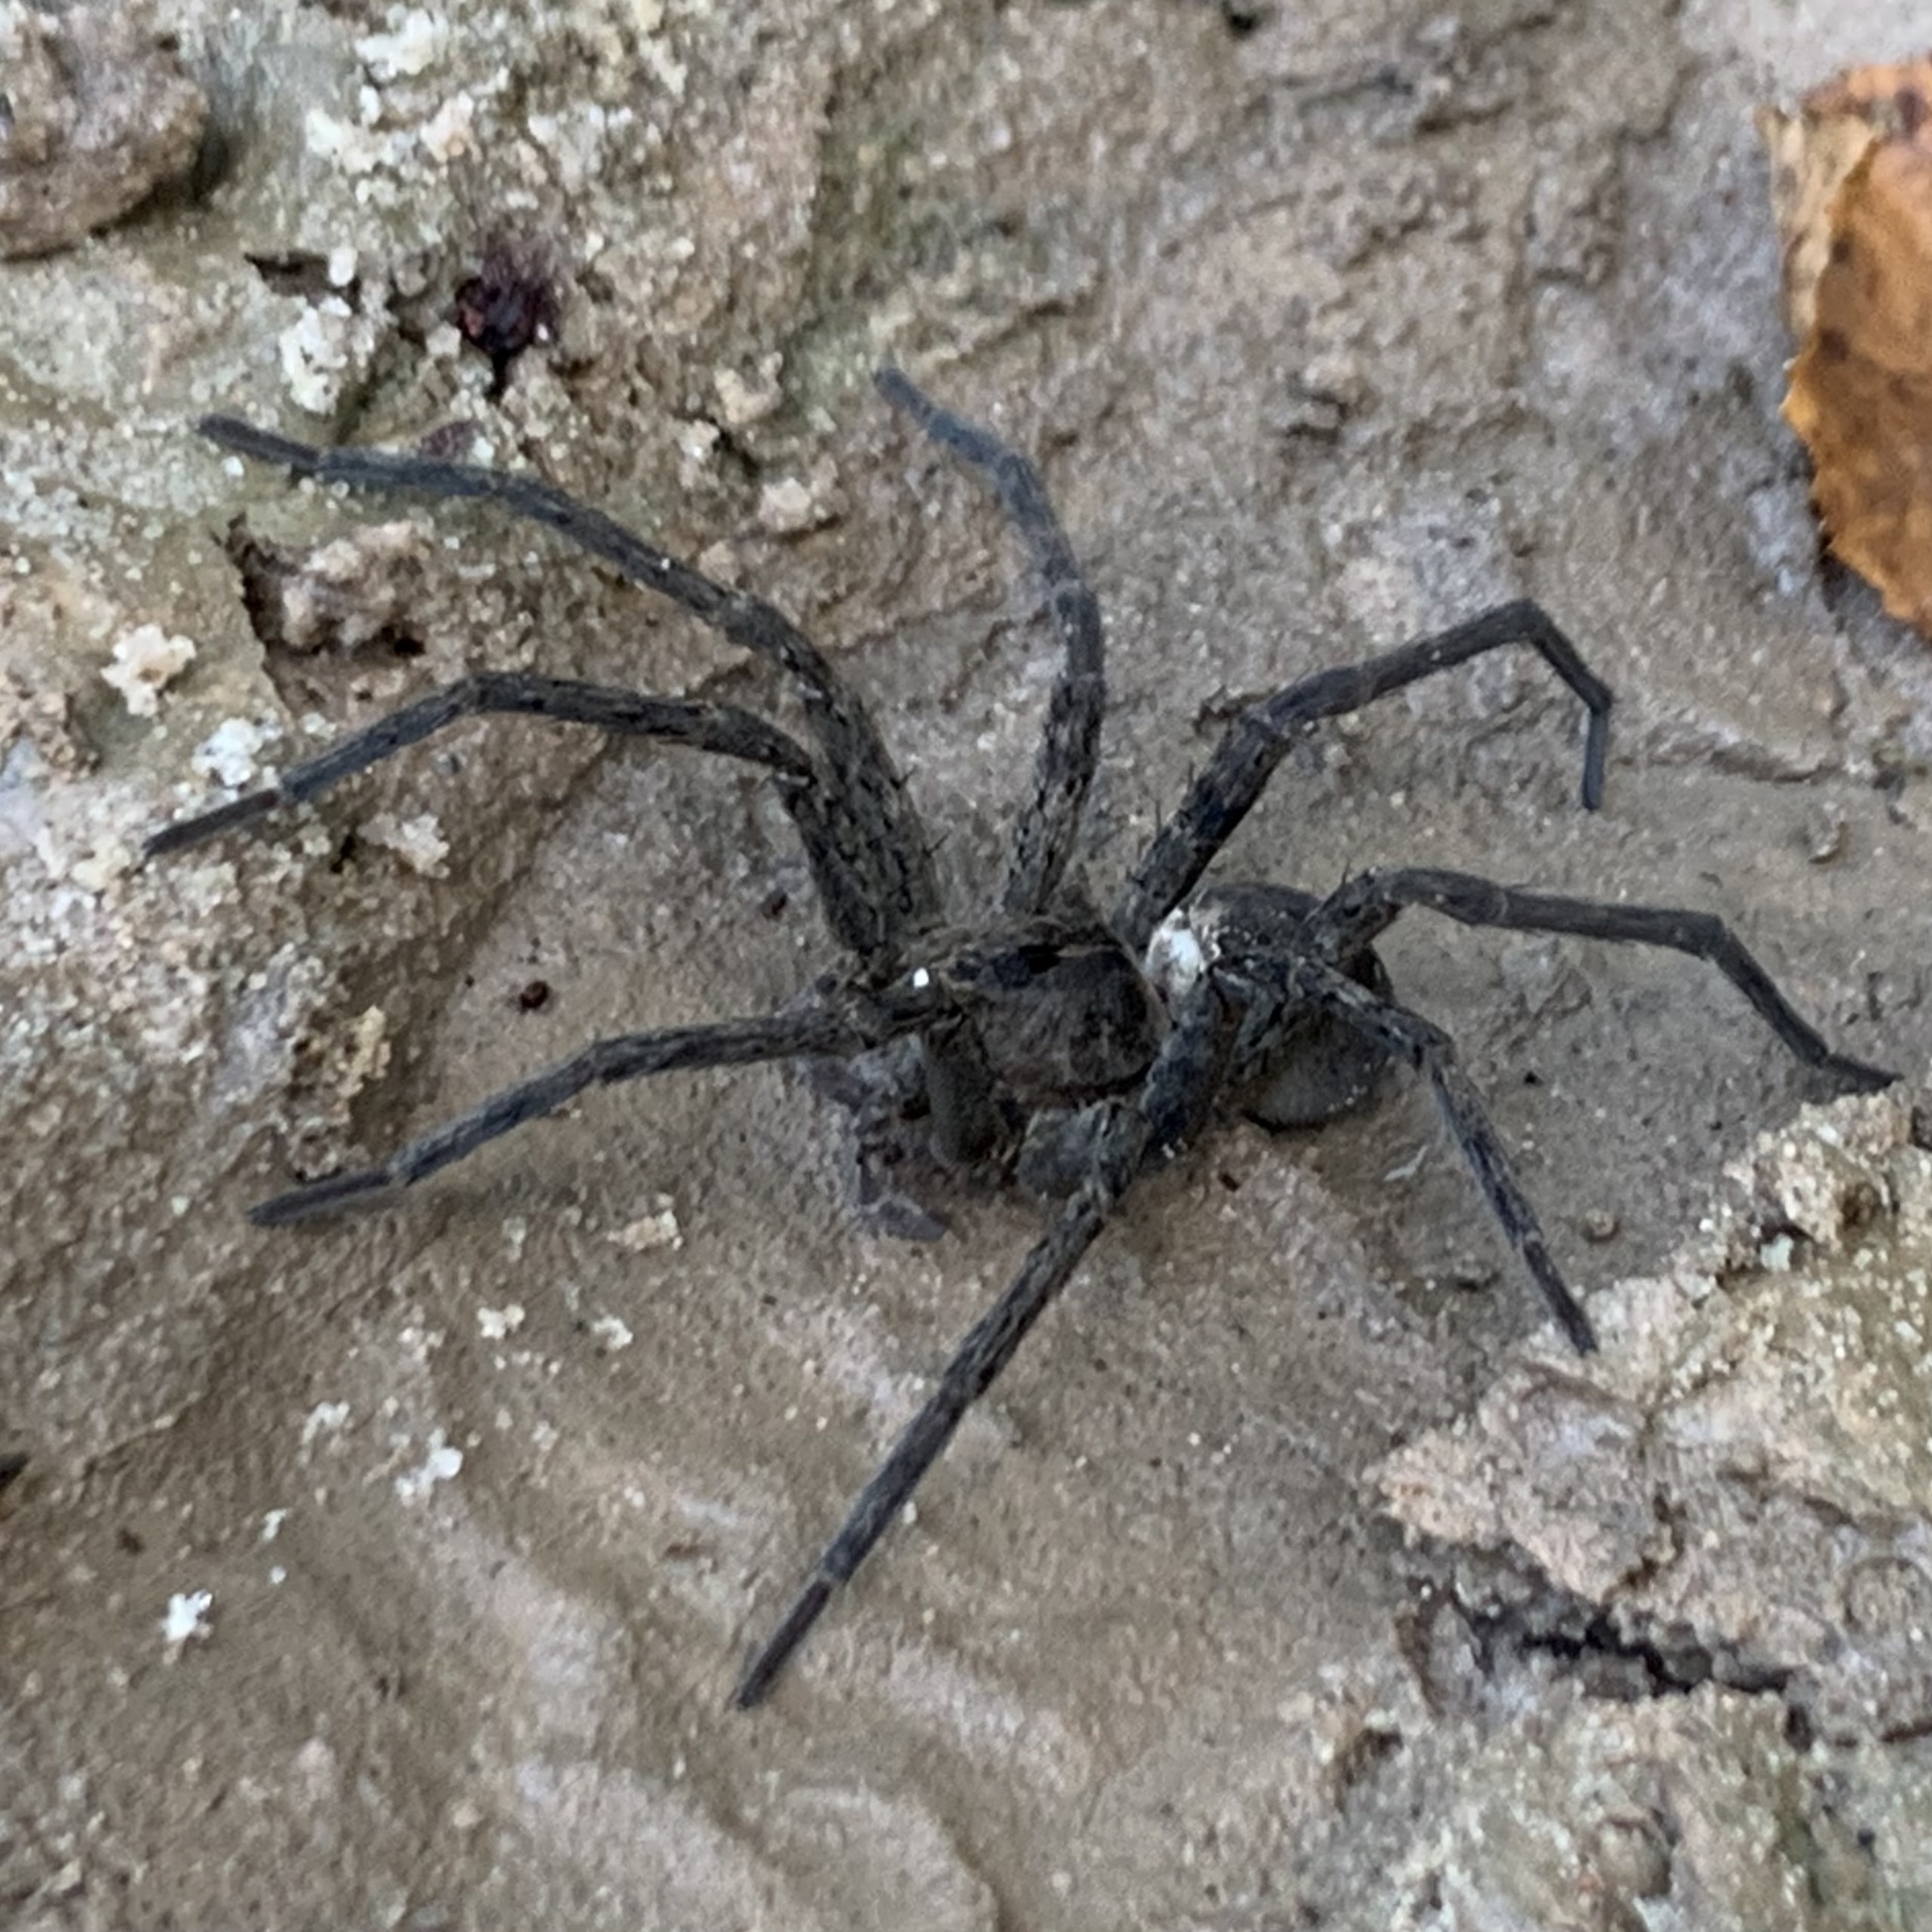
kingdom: Animalia
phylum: Arthropoda
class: Arachnida
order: Araneae
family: Pisauridae
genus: Dolomedes
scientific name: Dolomedes vittatus
